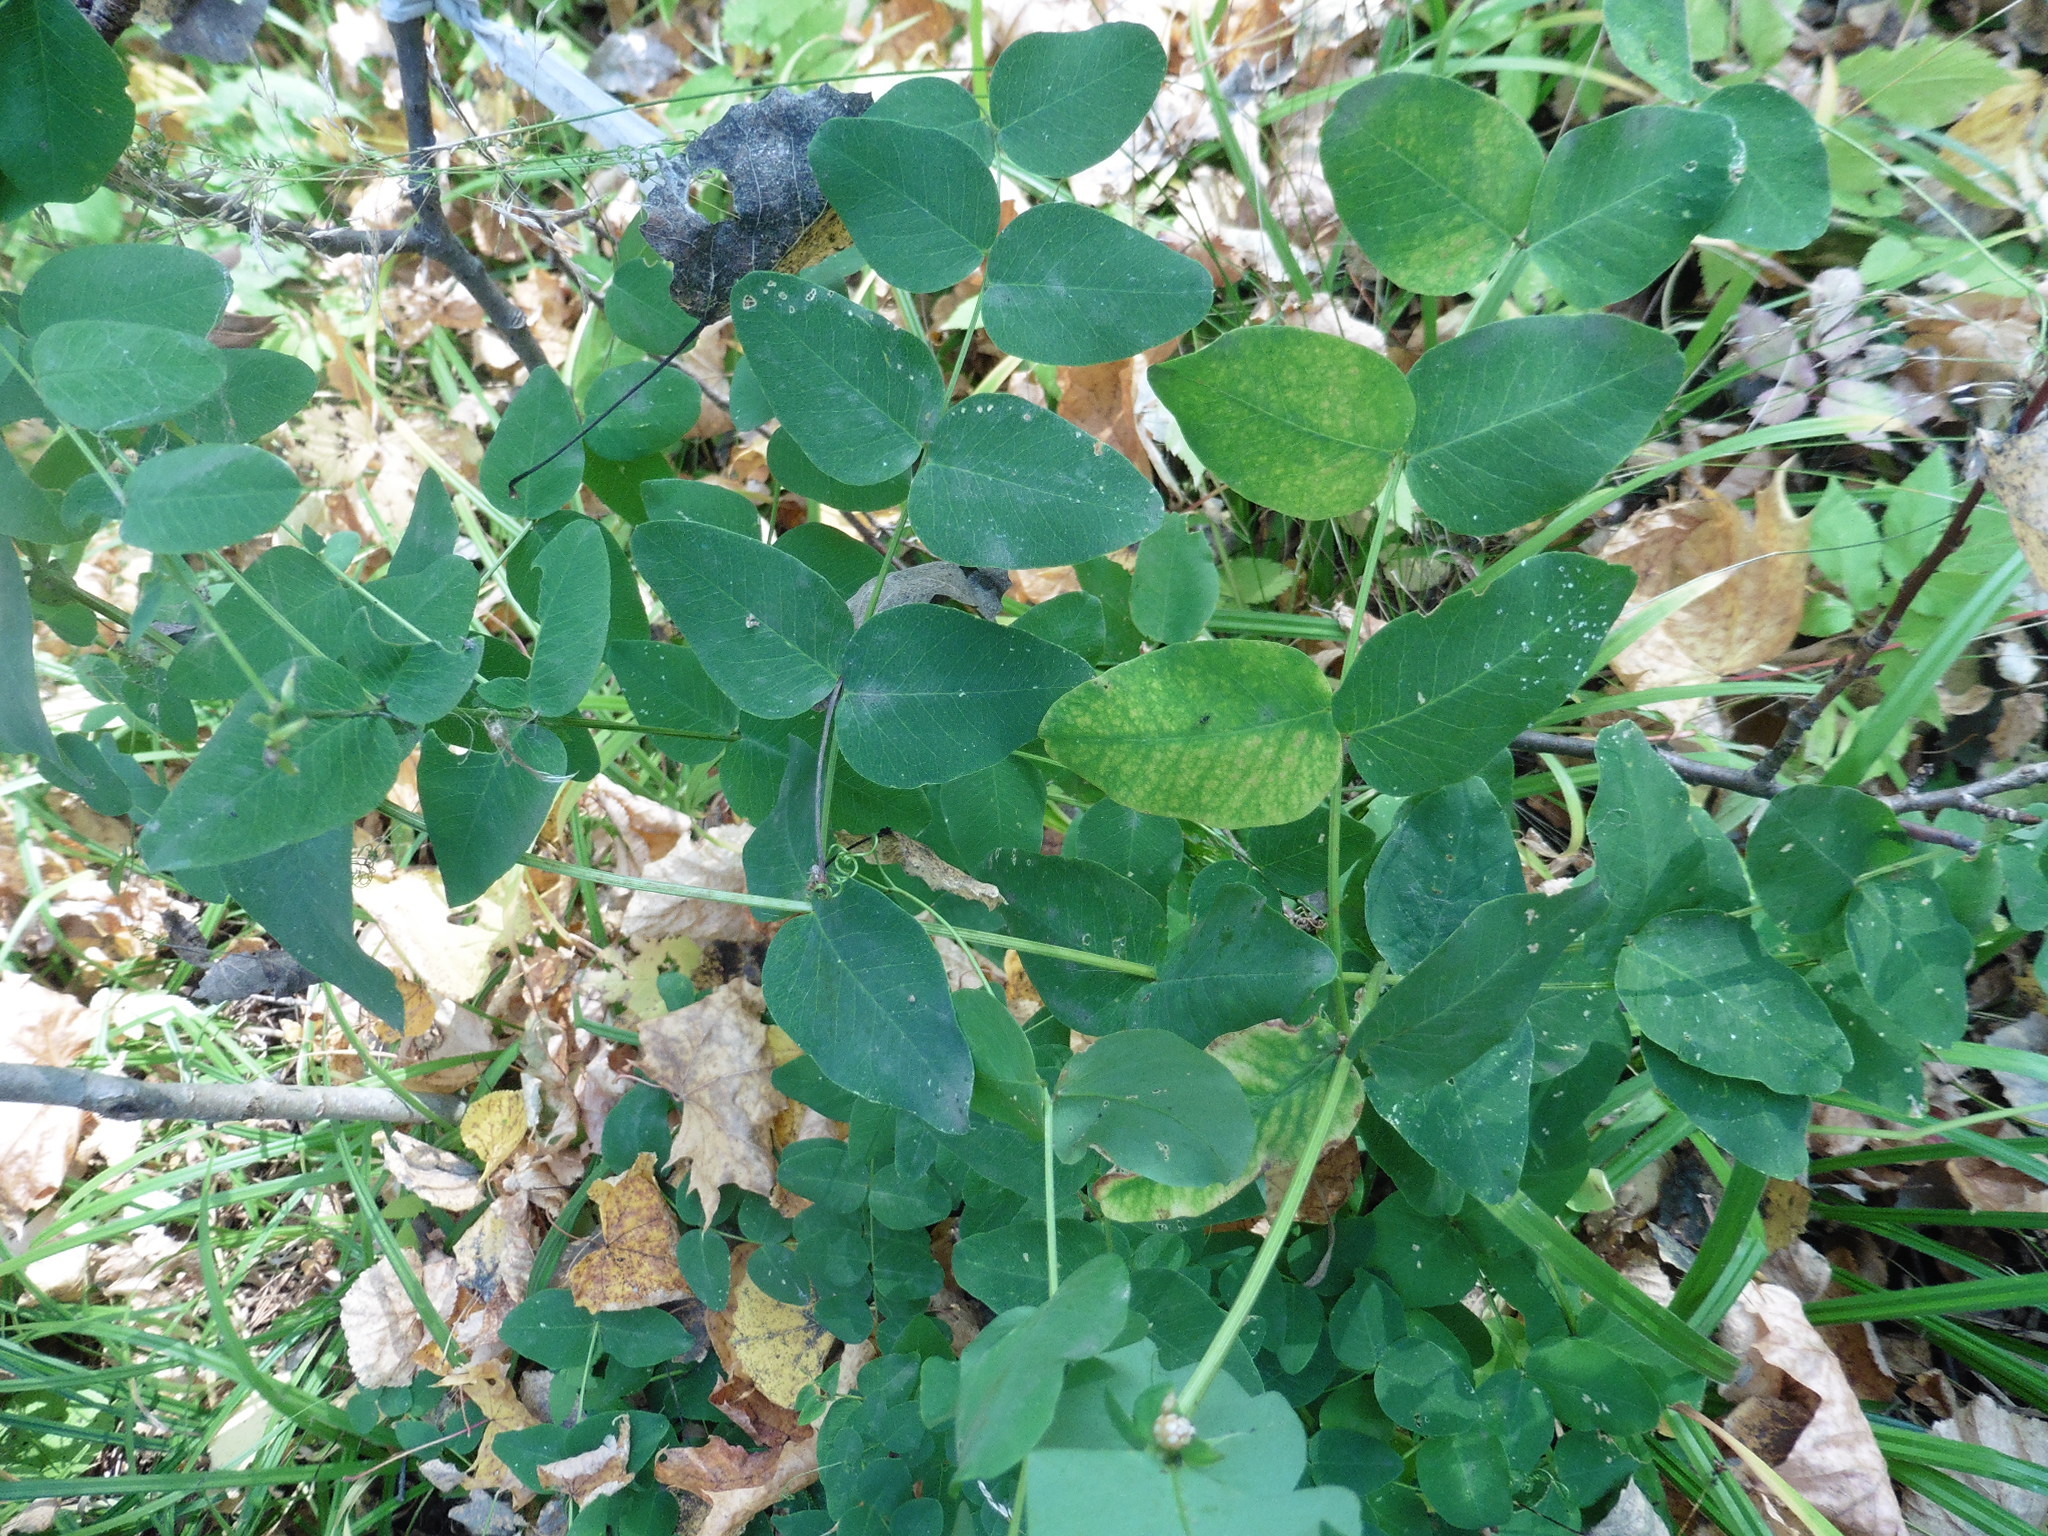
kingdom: Plantae
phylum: Tracheophyta
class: Magnoliopsida
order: Fabales
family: Fabaceae
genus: Vicia
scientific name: Vicia pisiformis
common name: Pale-flower vetch
